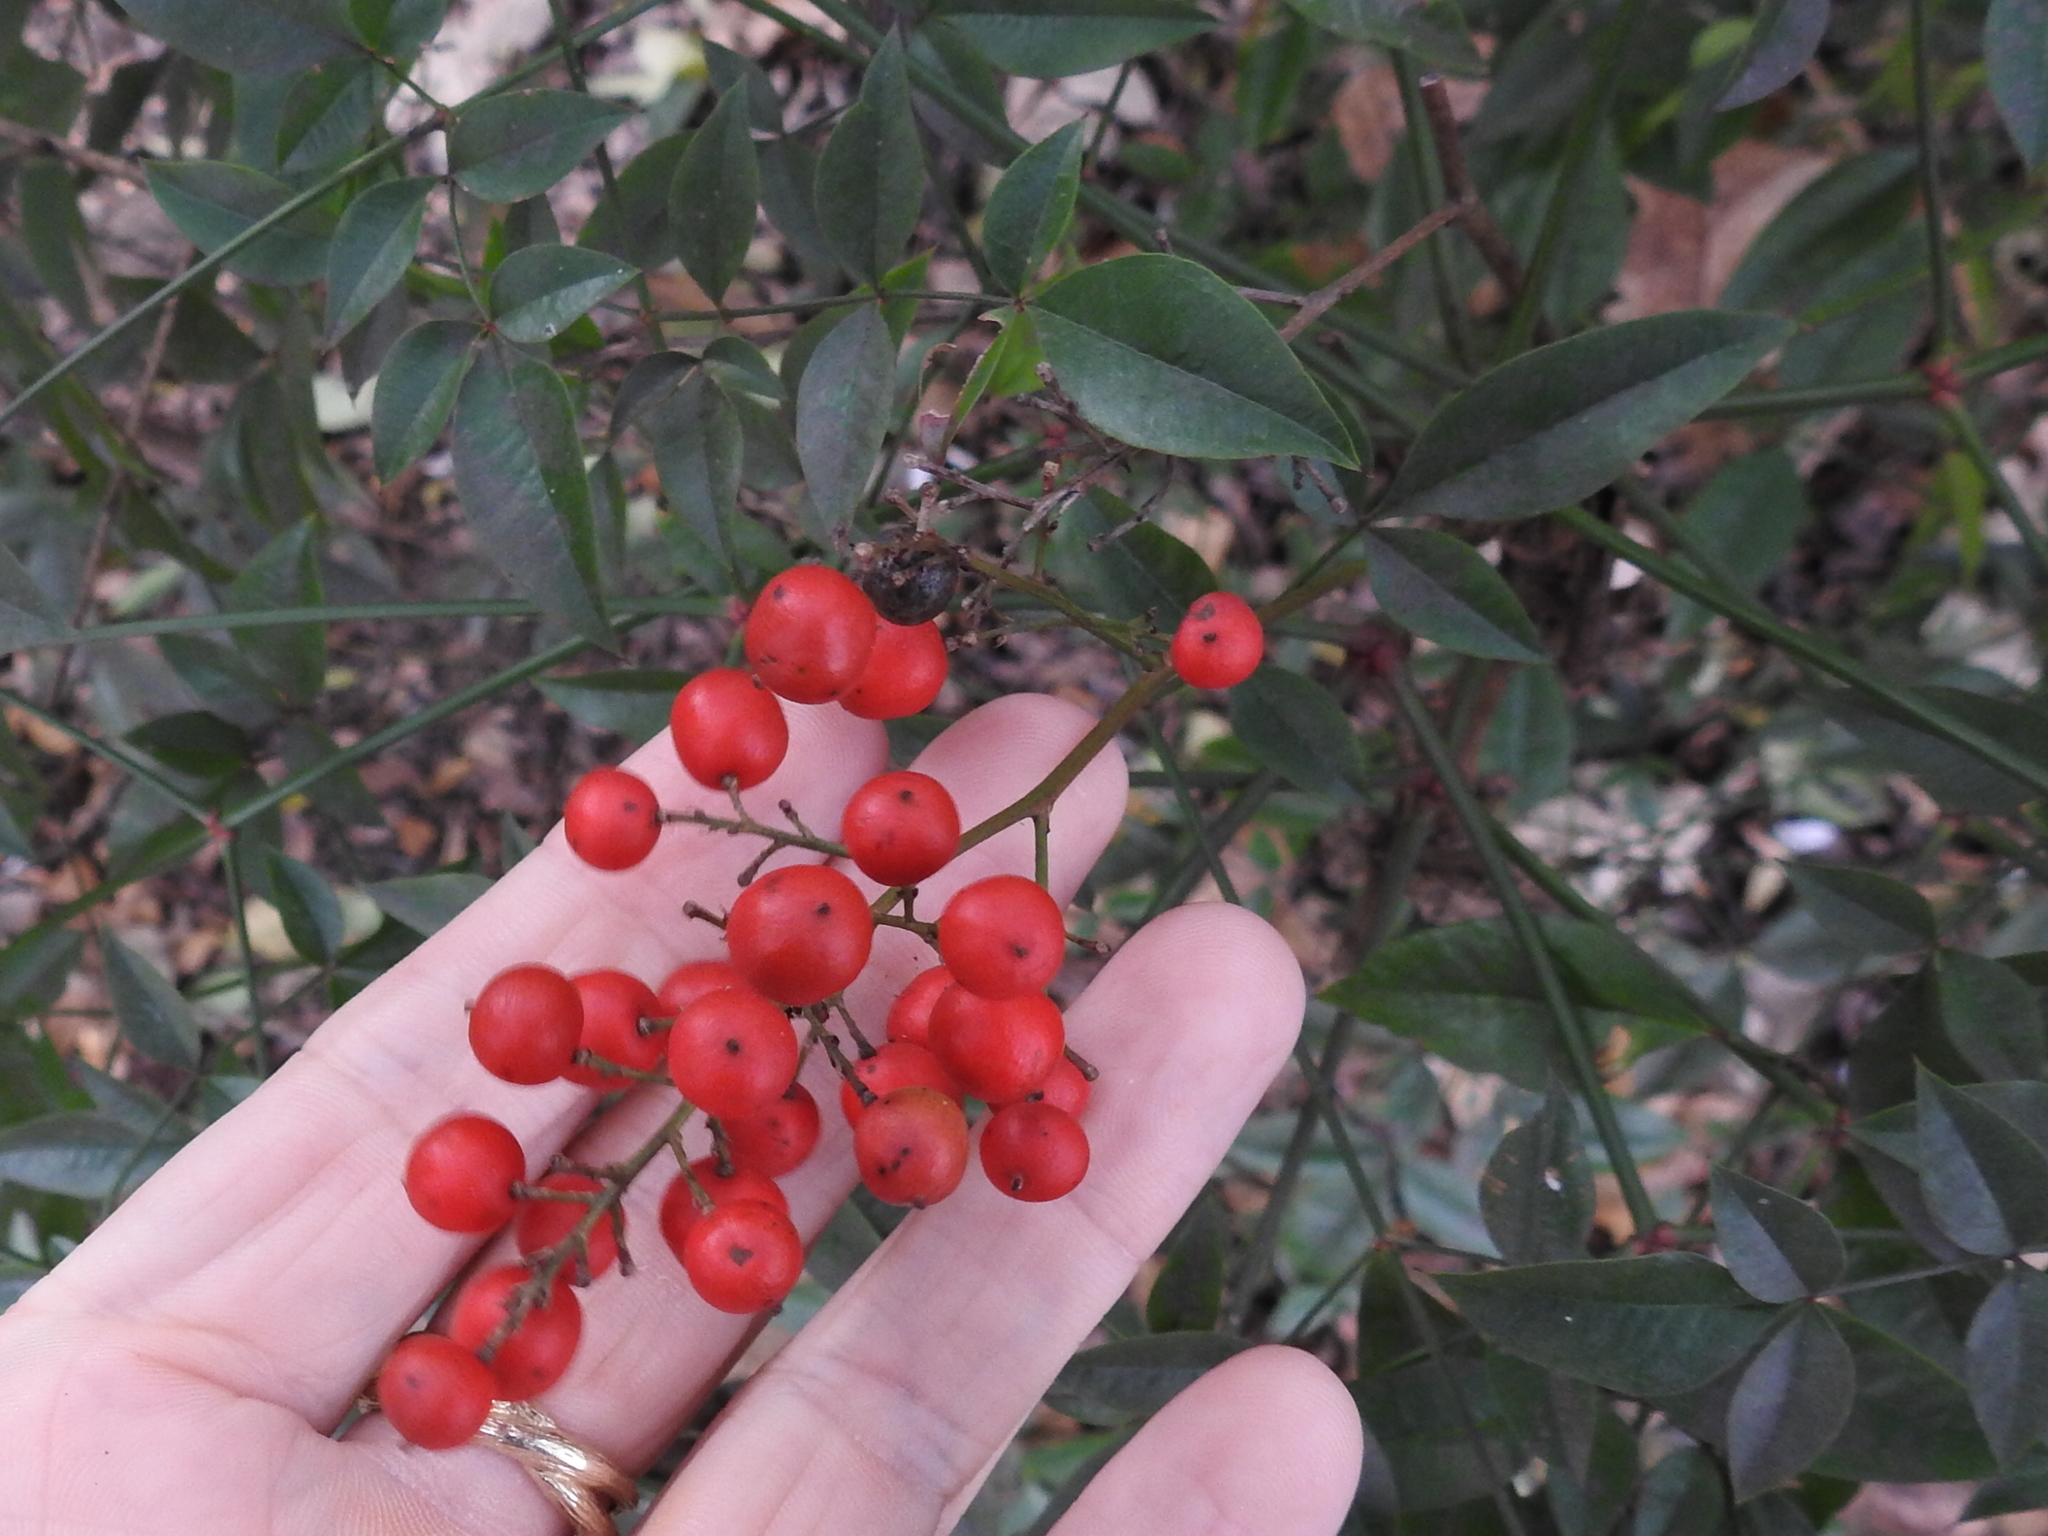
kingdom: Plantae
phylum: Tracheophyta
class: Magnoliopsida
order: Ranunculales
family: Berberidaceae
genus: Nandina
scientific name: Nandina domestica
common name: Sacred bamboo
